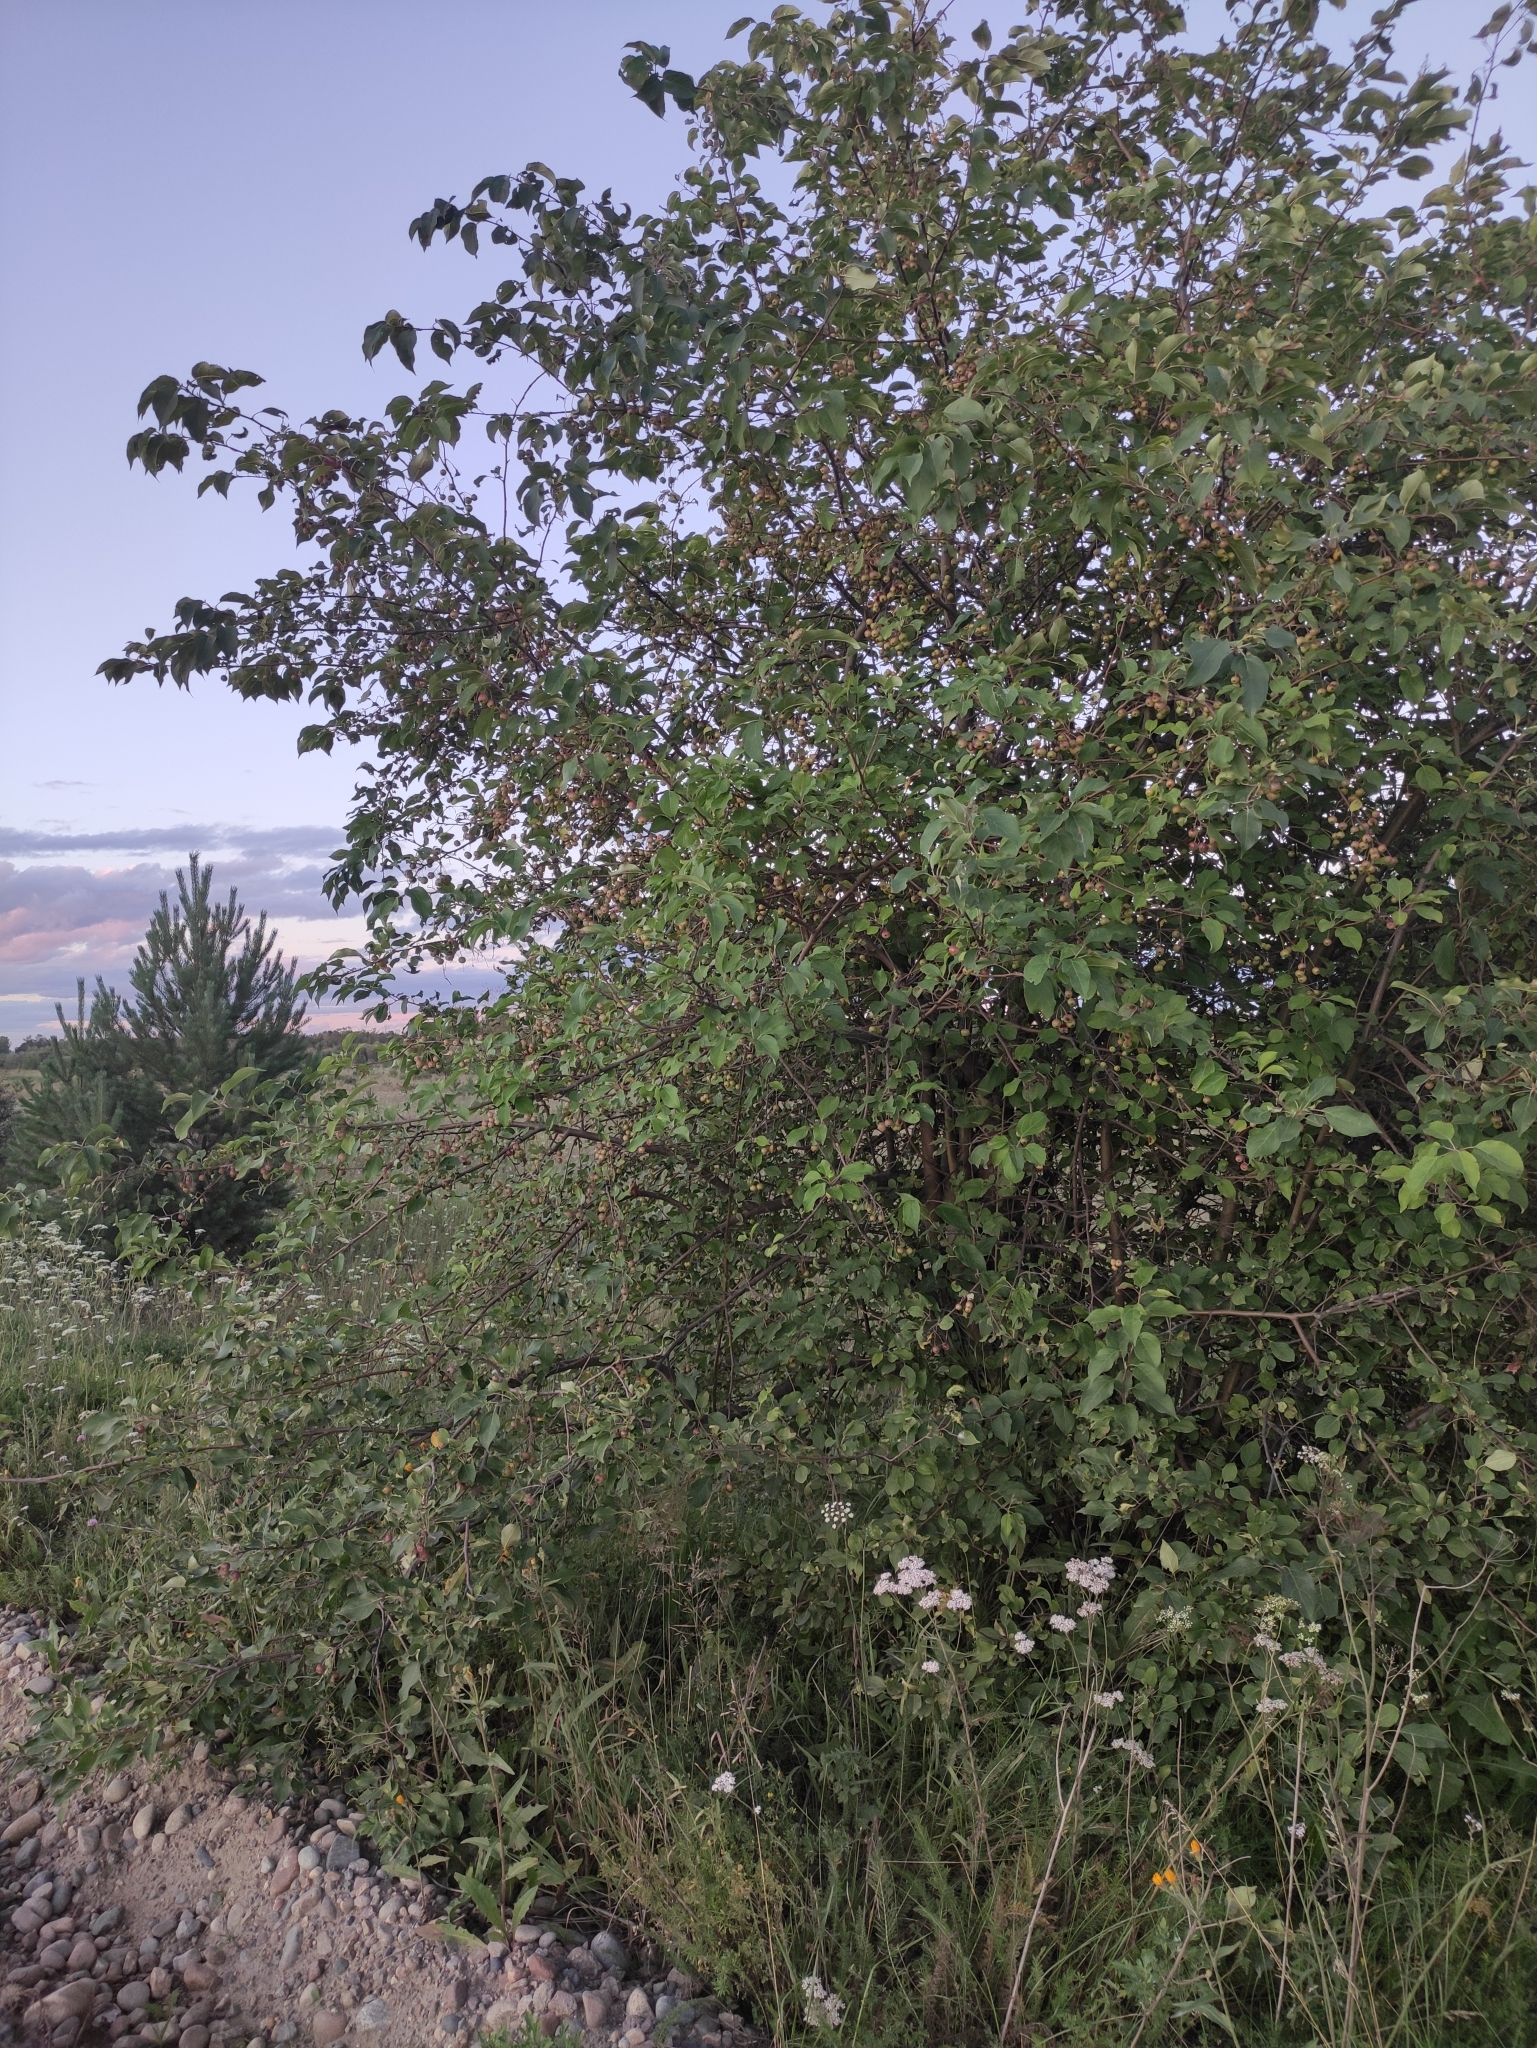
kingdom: Plantae
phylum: Tracheophyta
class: Magnoliopsida
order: Rosales
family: Rosaceae
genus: Malus
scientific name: Malus baccata
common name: Siberian crab
